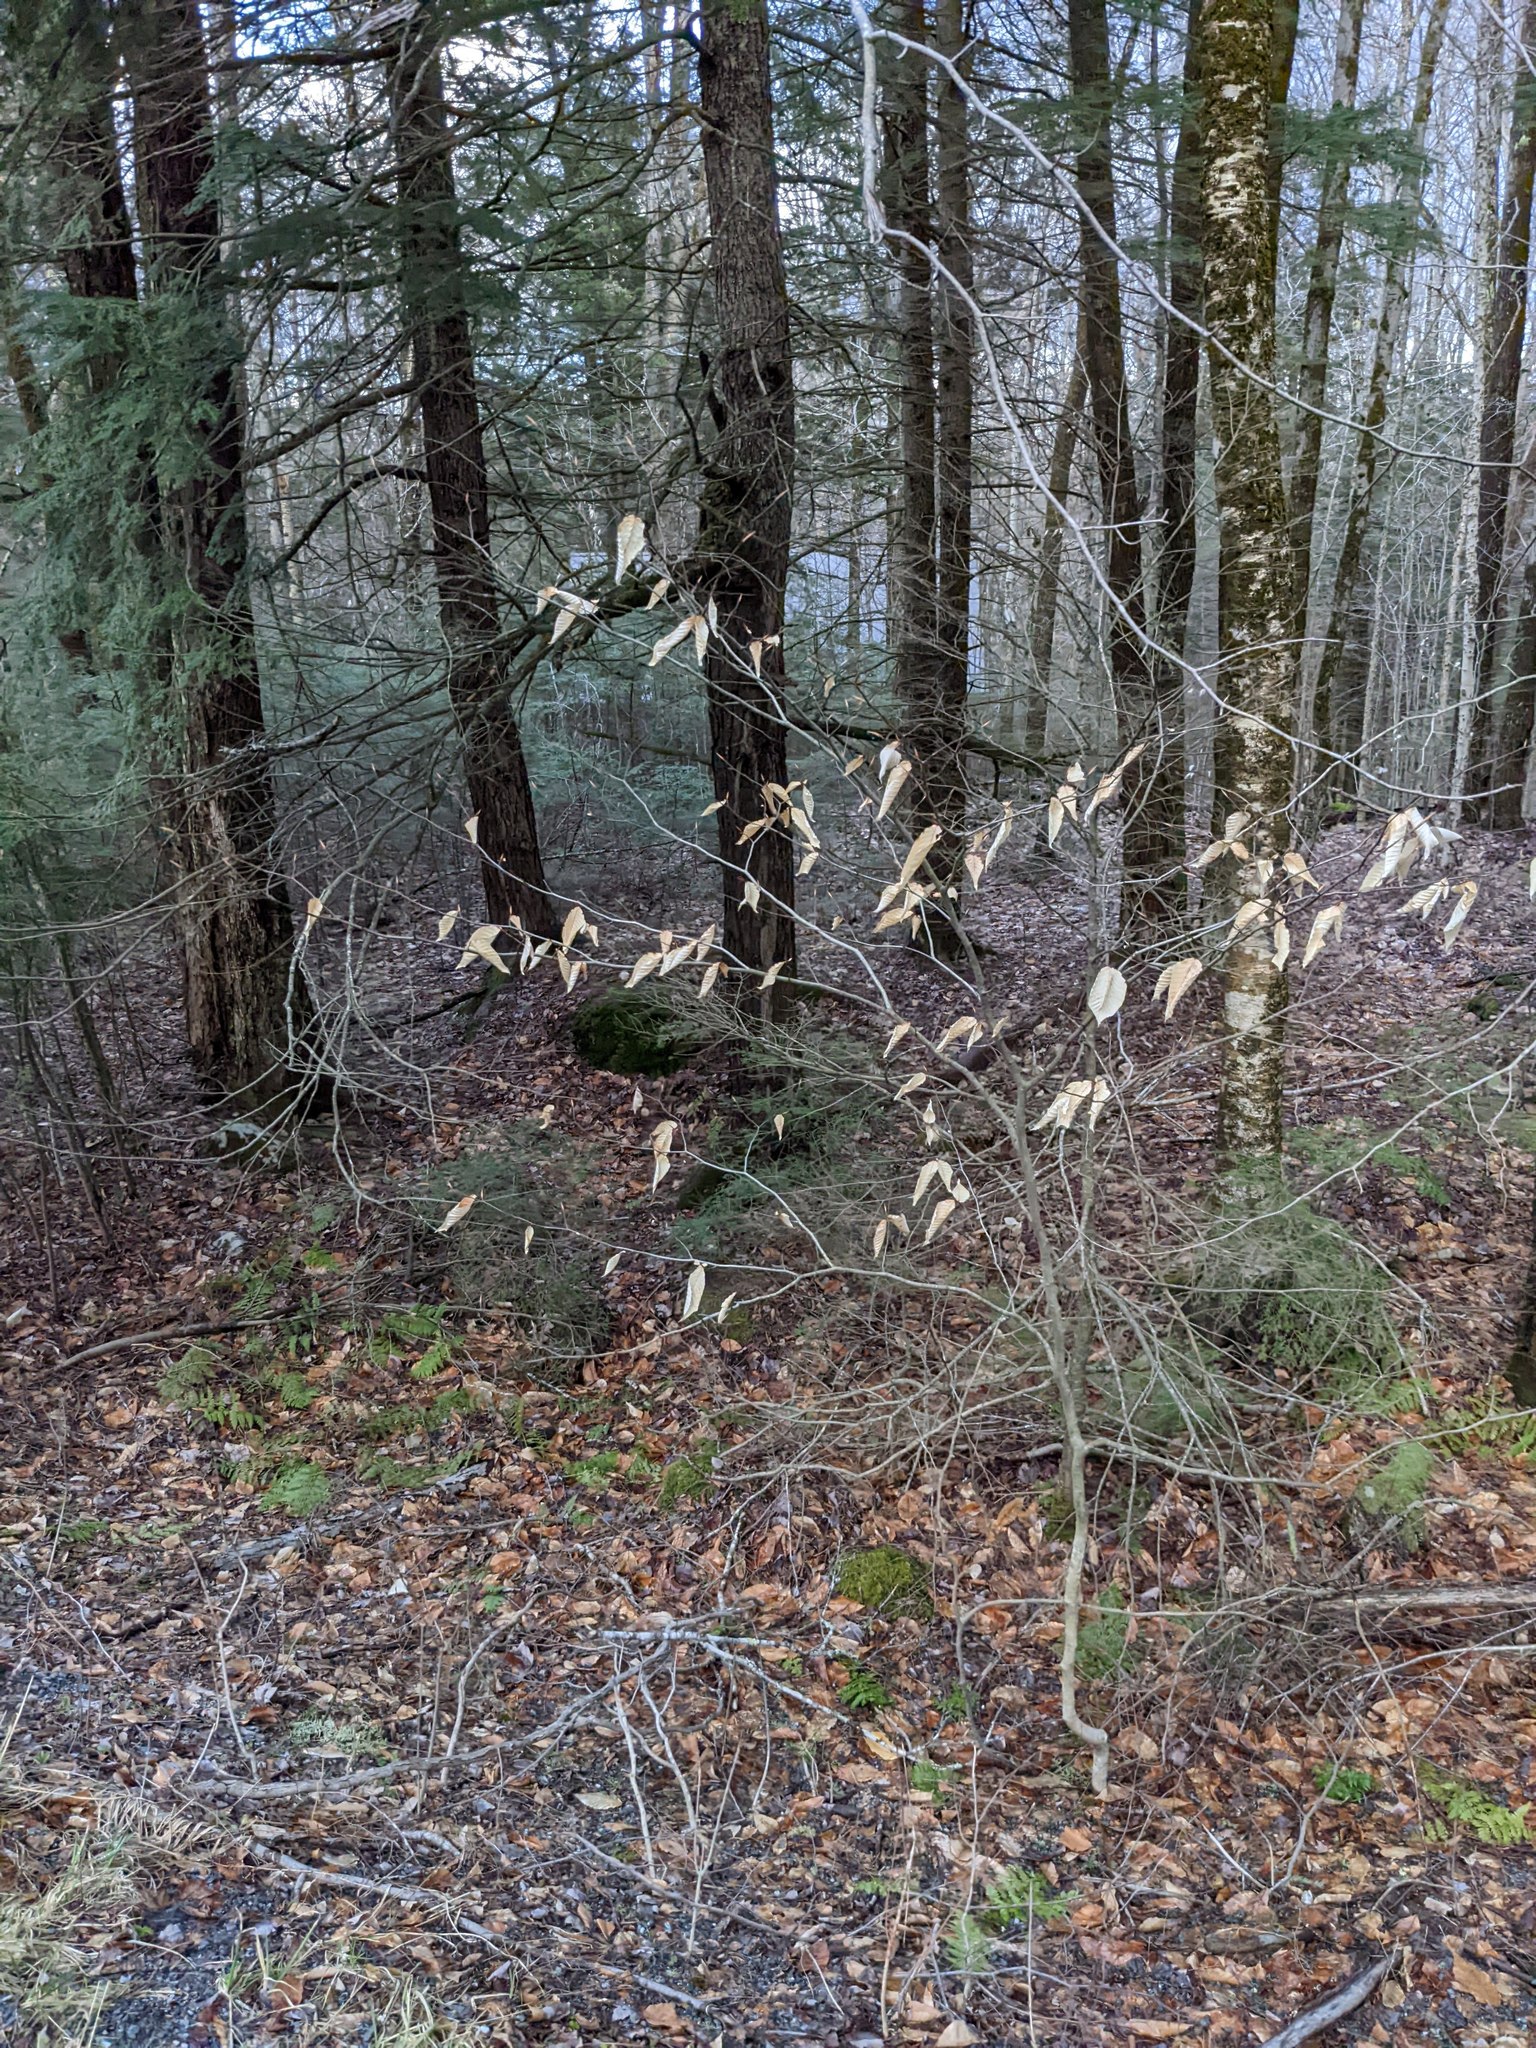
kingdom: Plantae
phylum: Tracheophyta
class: Magnoliopsida
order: Fagales
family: Fagaceae
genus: Fagus
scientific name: Fagus grandifolia
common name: American beech
